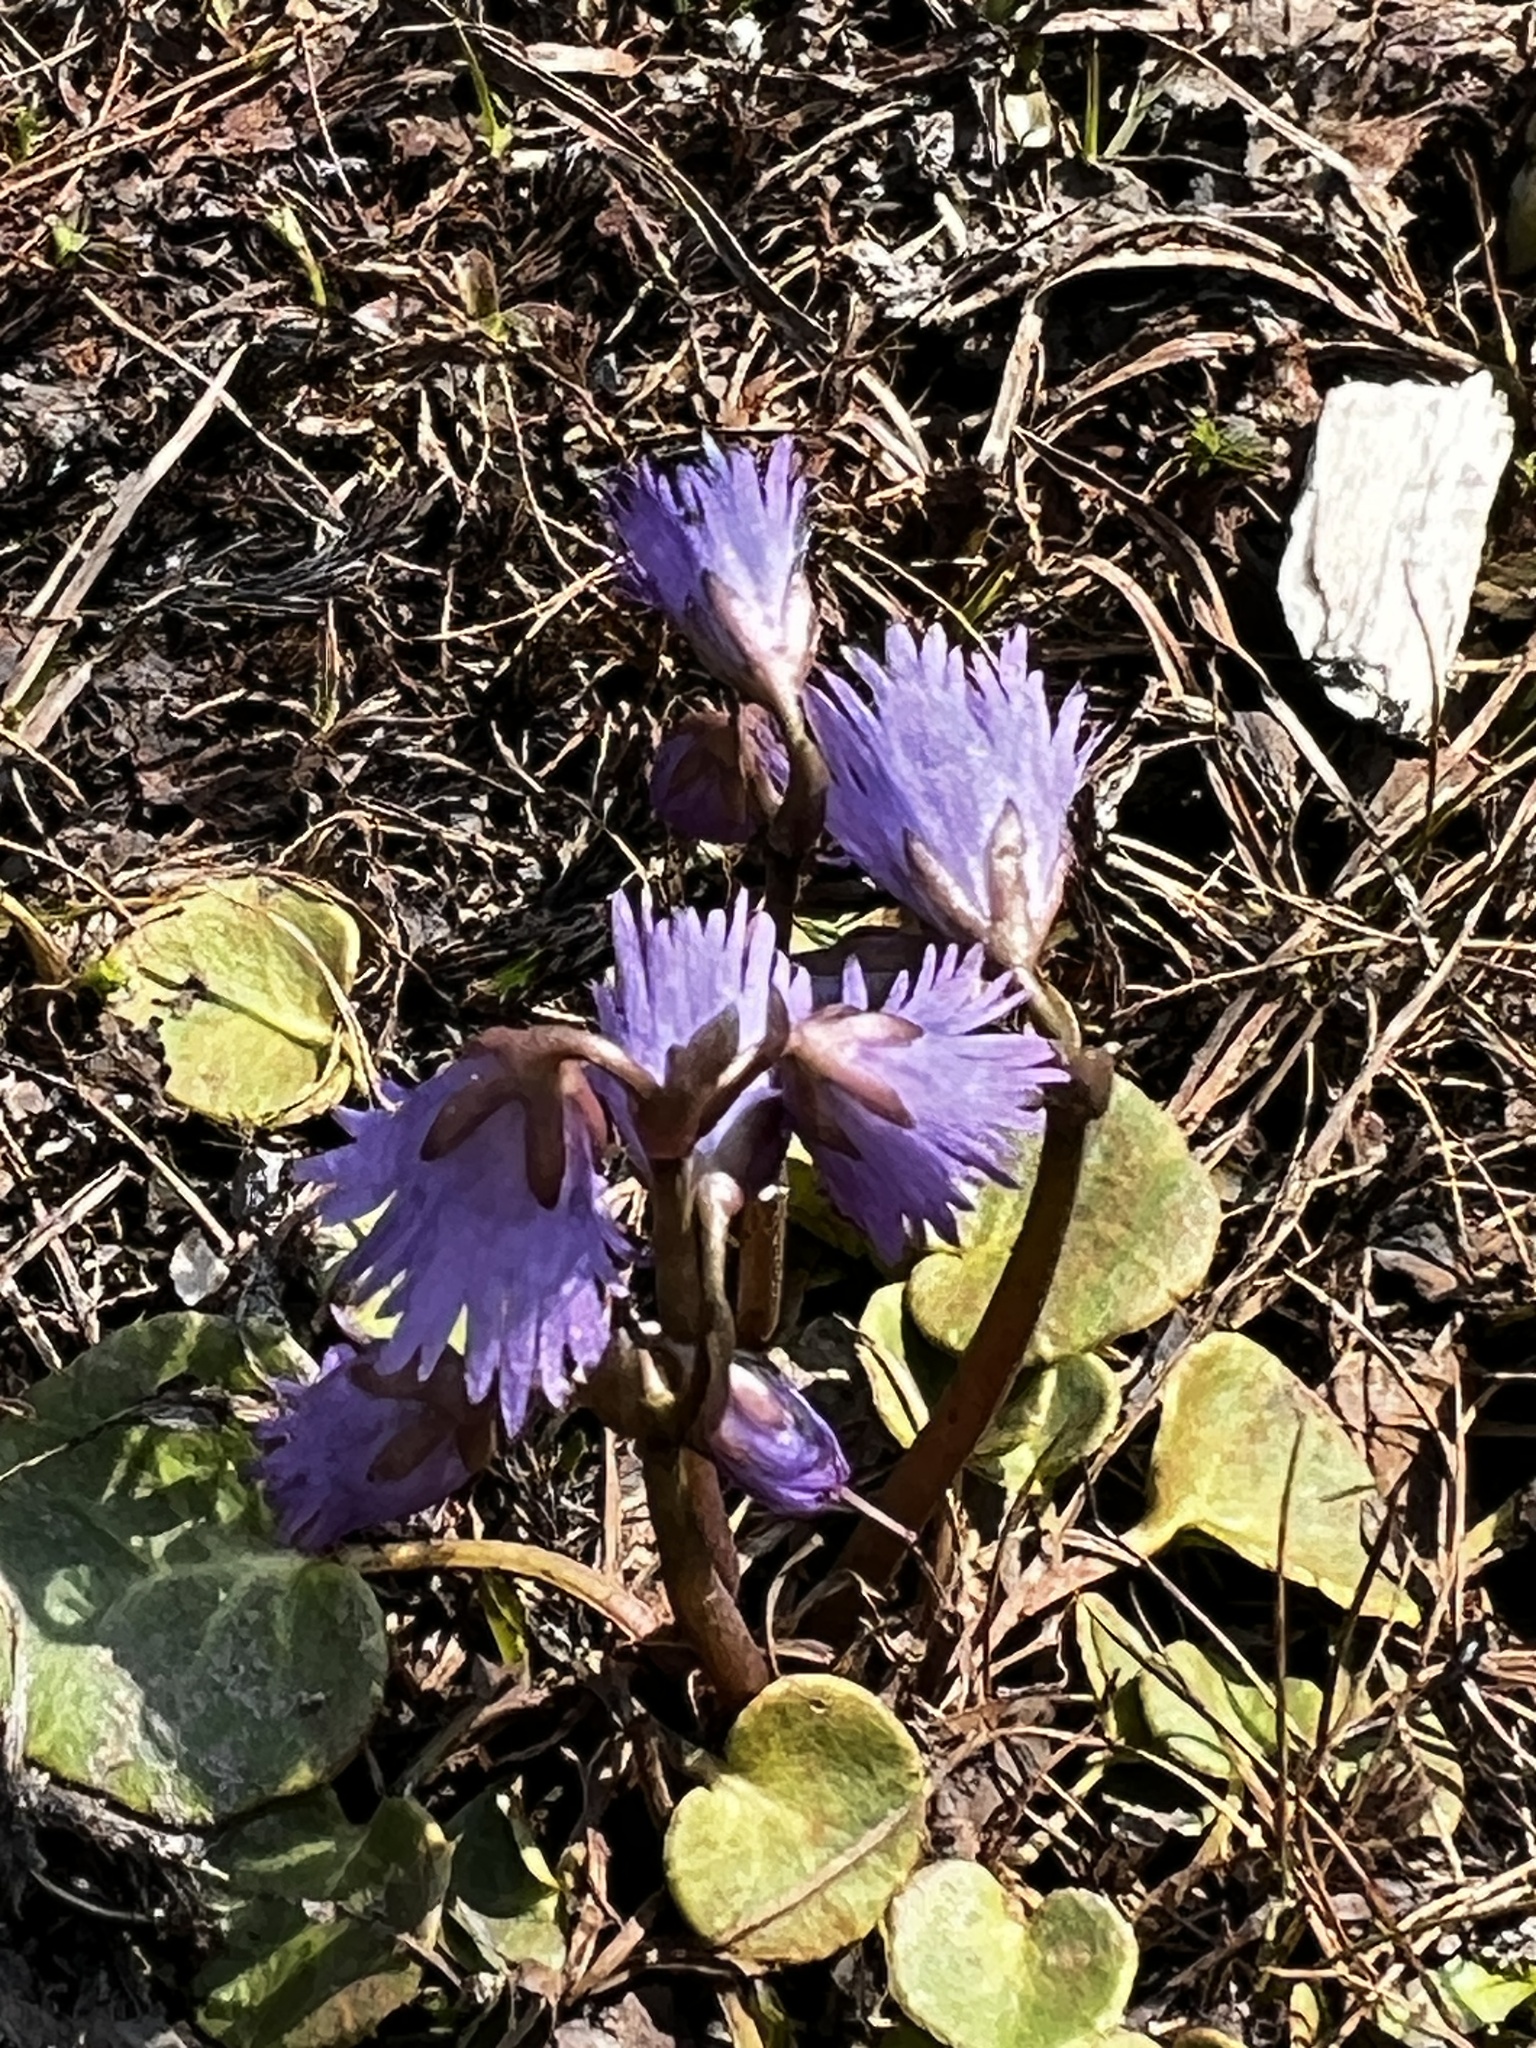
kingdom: Plantae
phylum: Tracheophyta
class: Magnoliopsida
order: Ericales
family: Primulaceae
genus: Soldanella
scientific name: Soldanella alpina
